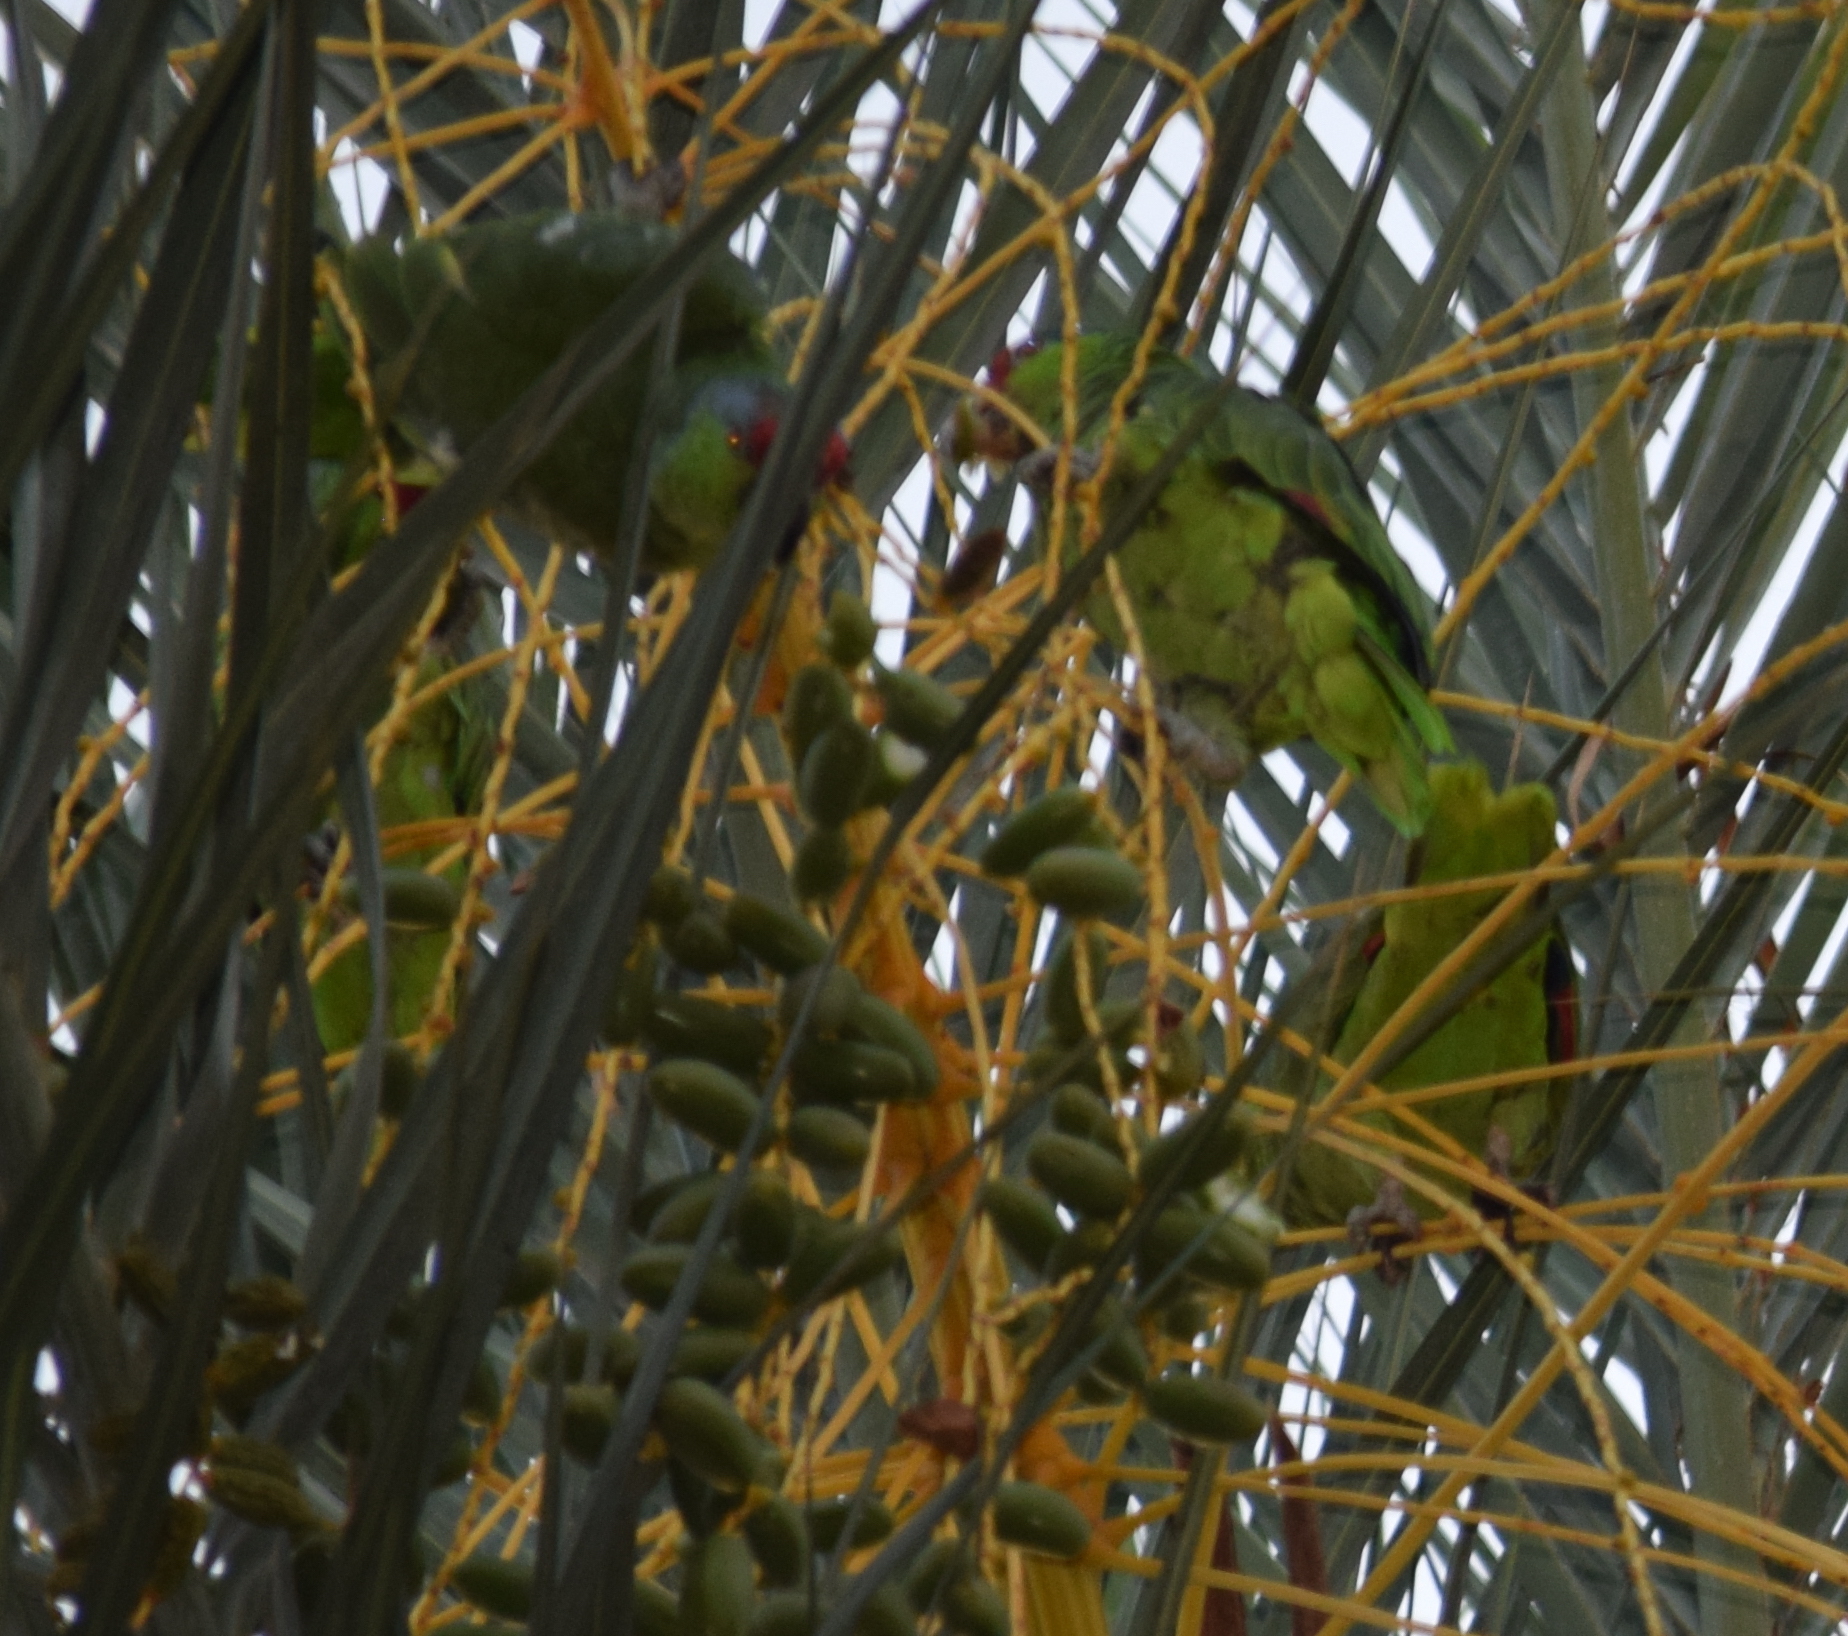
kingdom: Animalia
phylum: Chordata
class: Aves
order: Psittaciformes
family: Psittacidae
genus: Amazona
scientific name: Amazona finschi
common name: Lilac-crowned amazon
